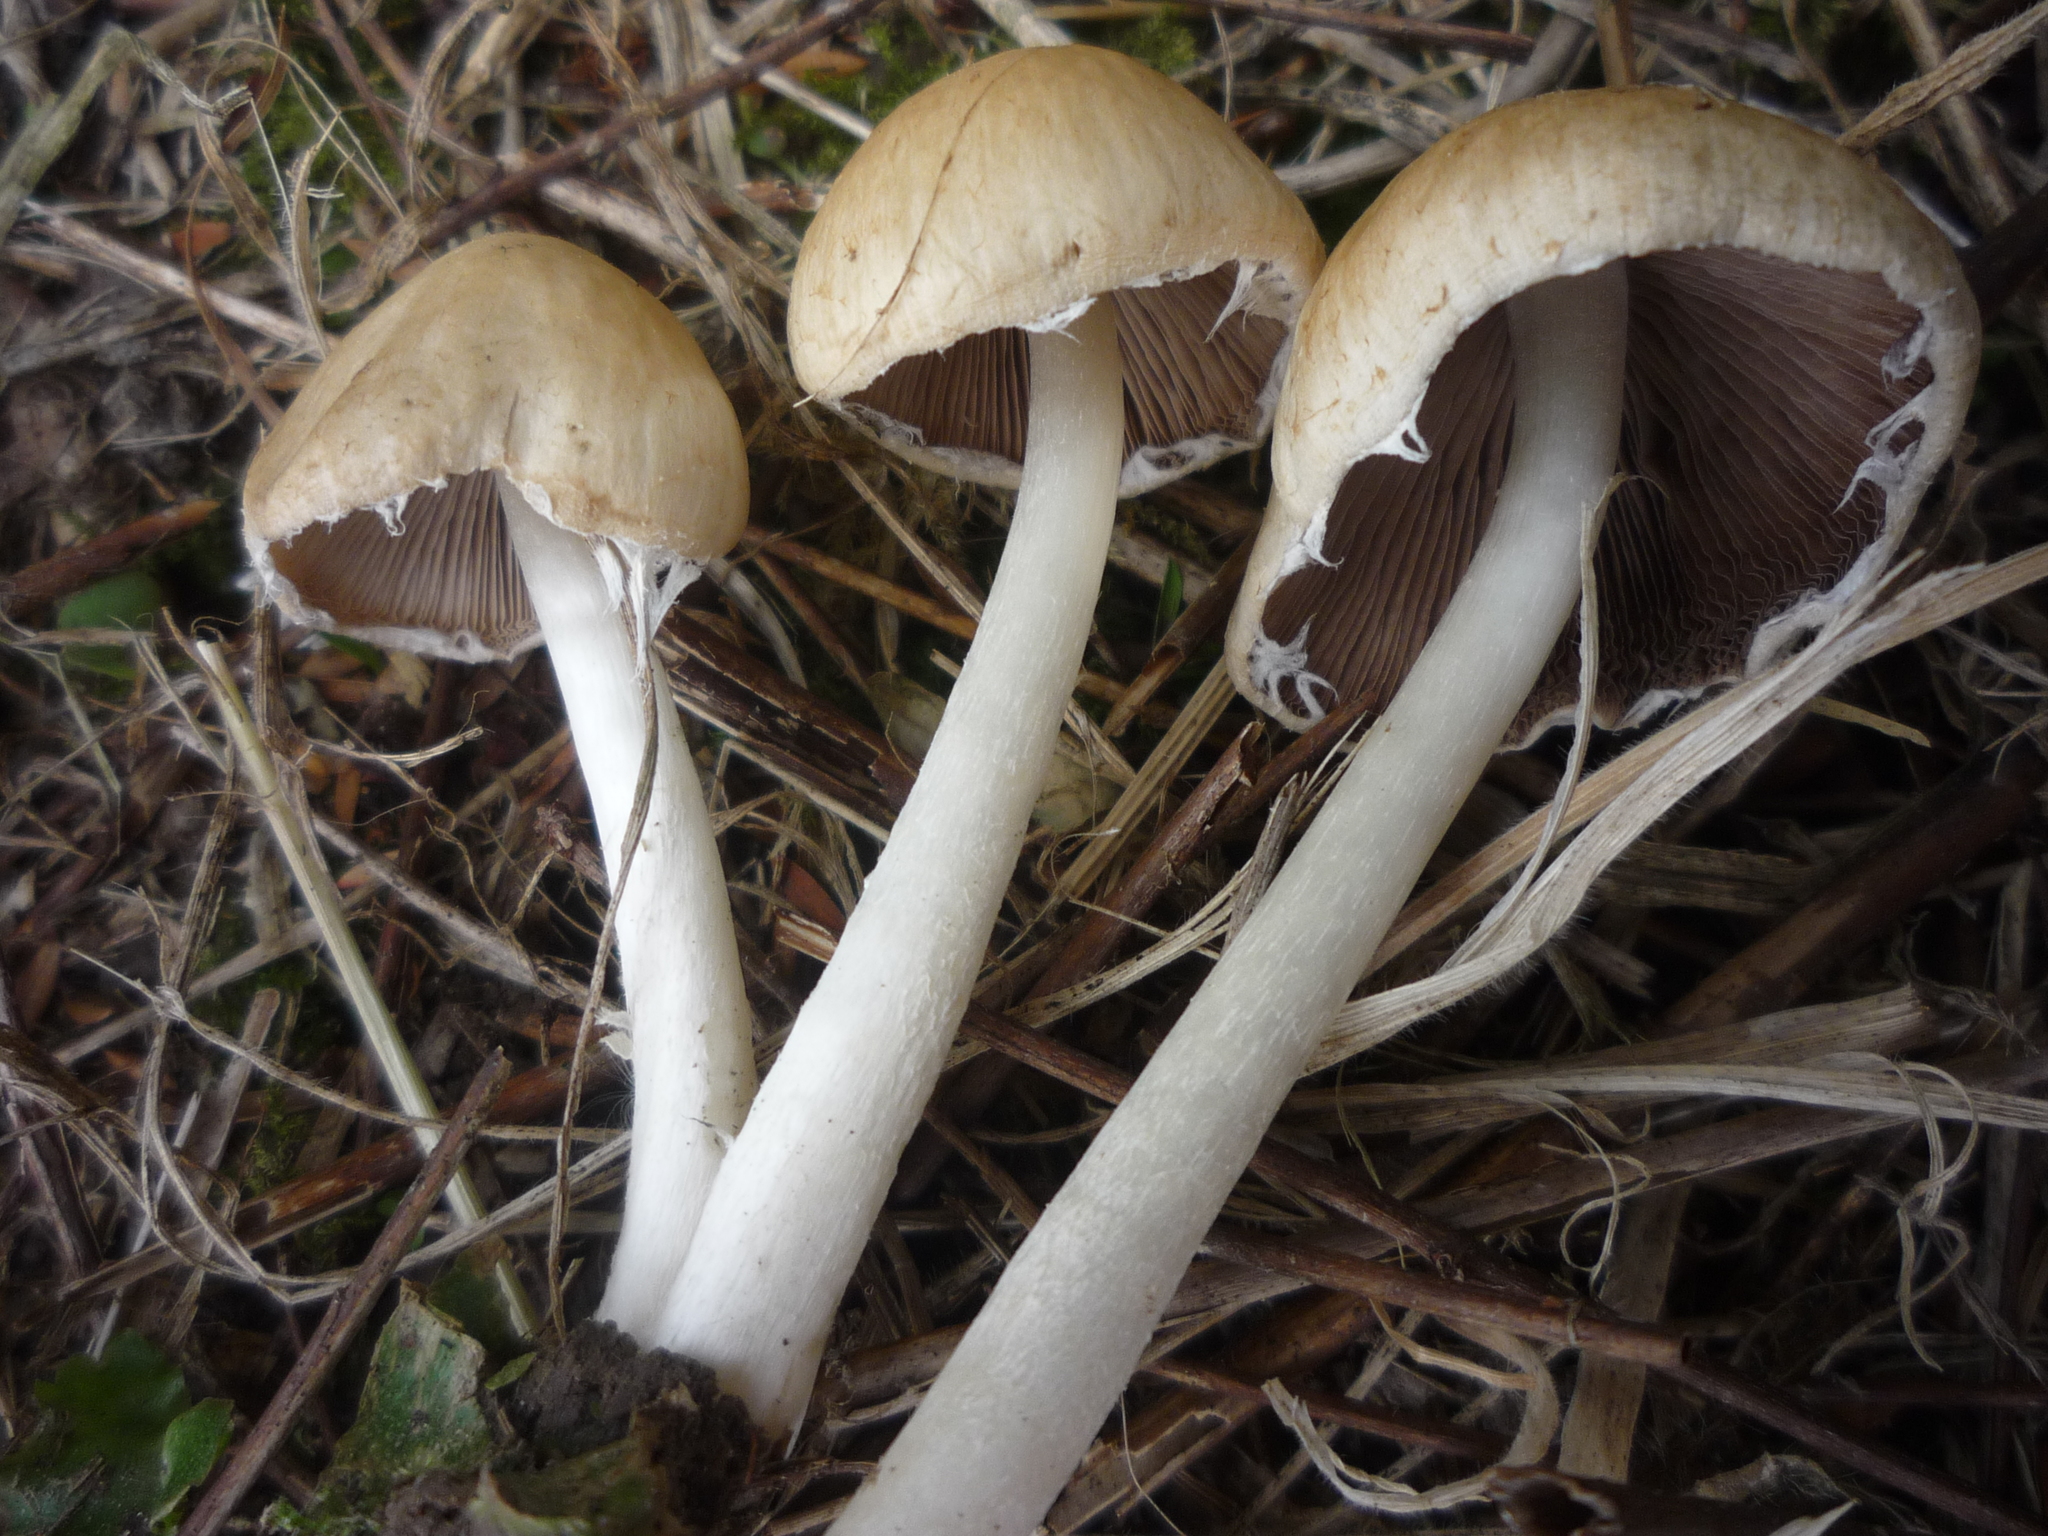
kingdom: Fungi
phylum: Basidiomycota
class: Agaricomycetes
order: Agaricales
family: Psathyrellaceae
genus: Candolleomyces
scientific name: Candolleomyces candolleanus
